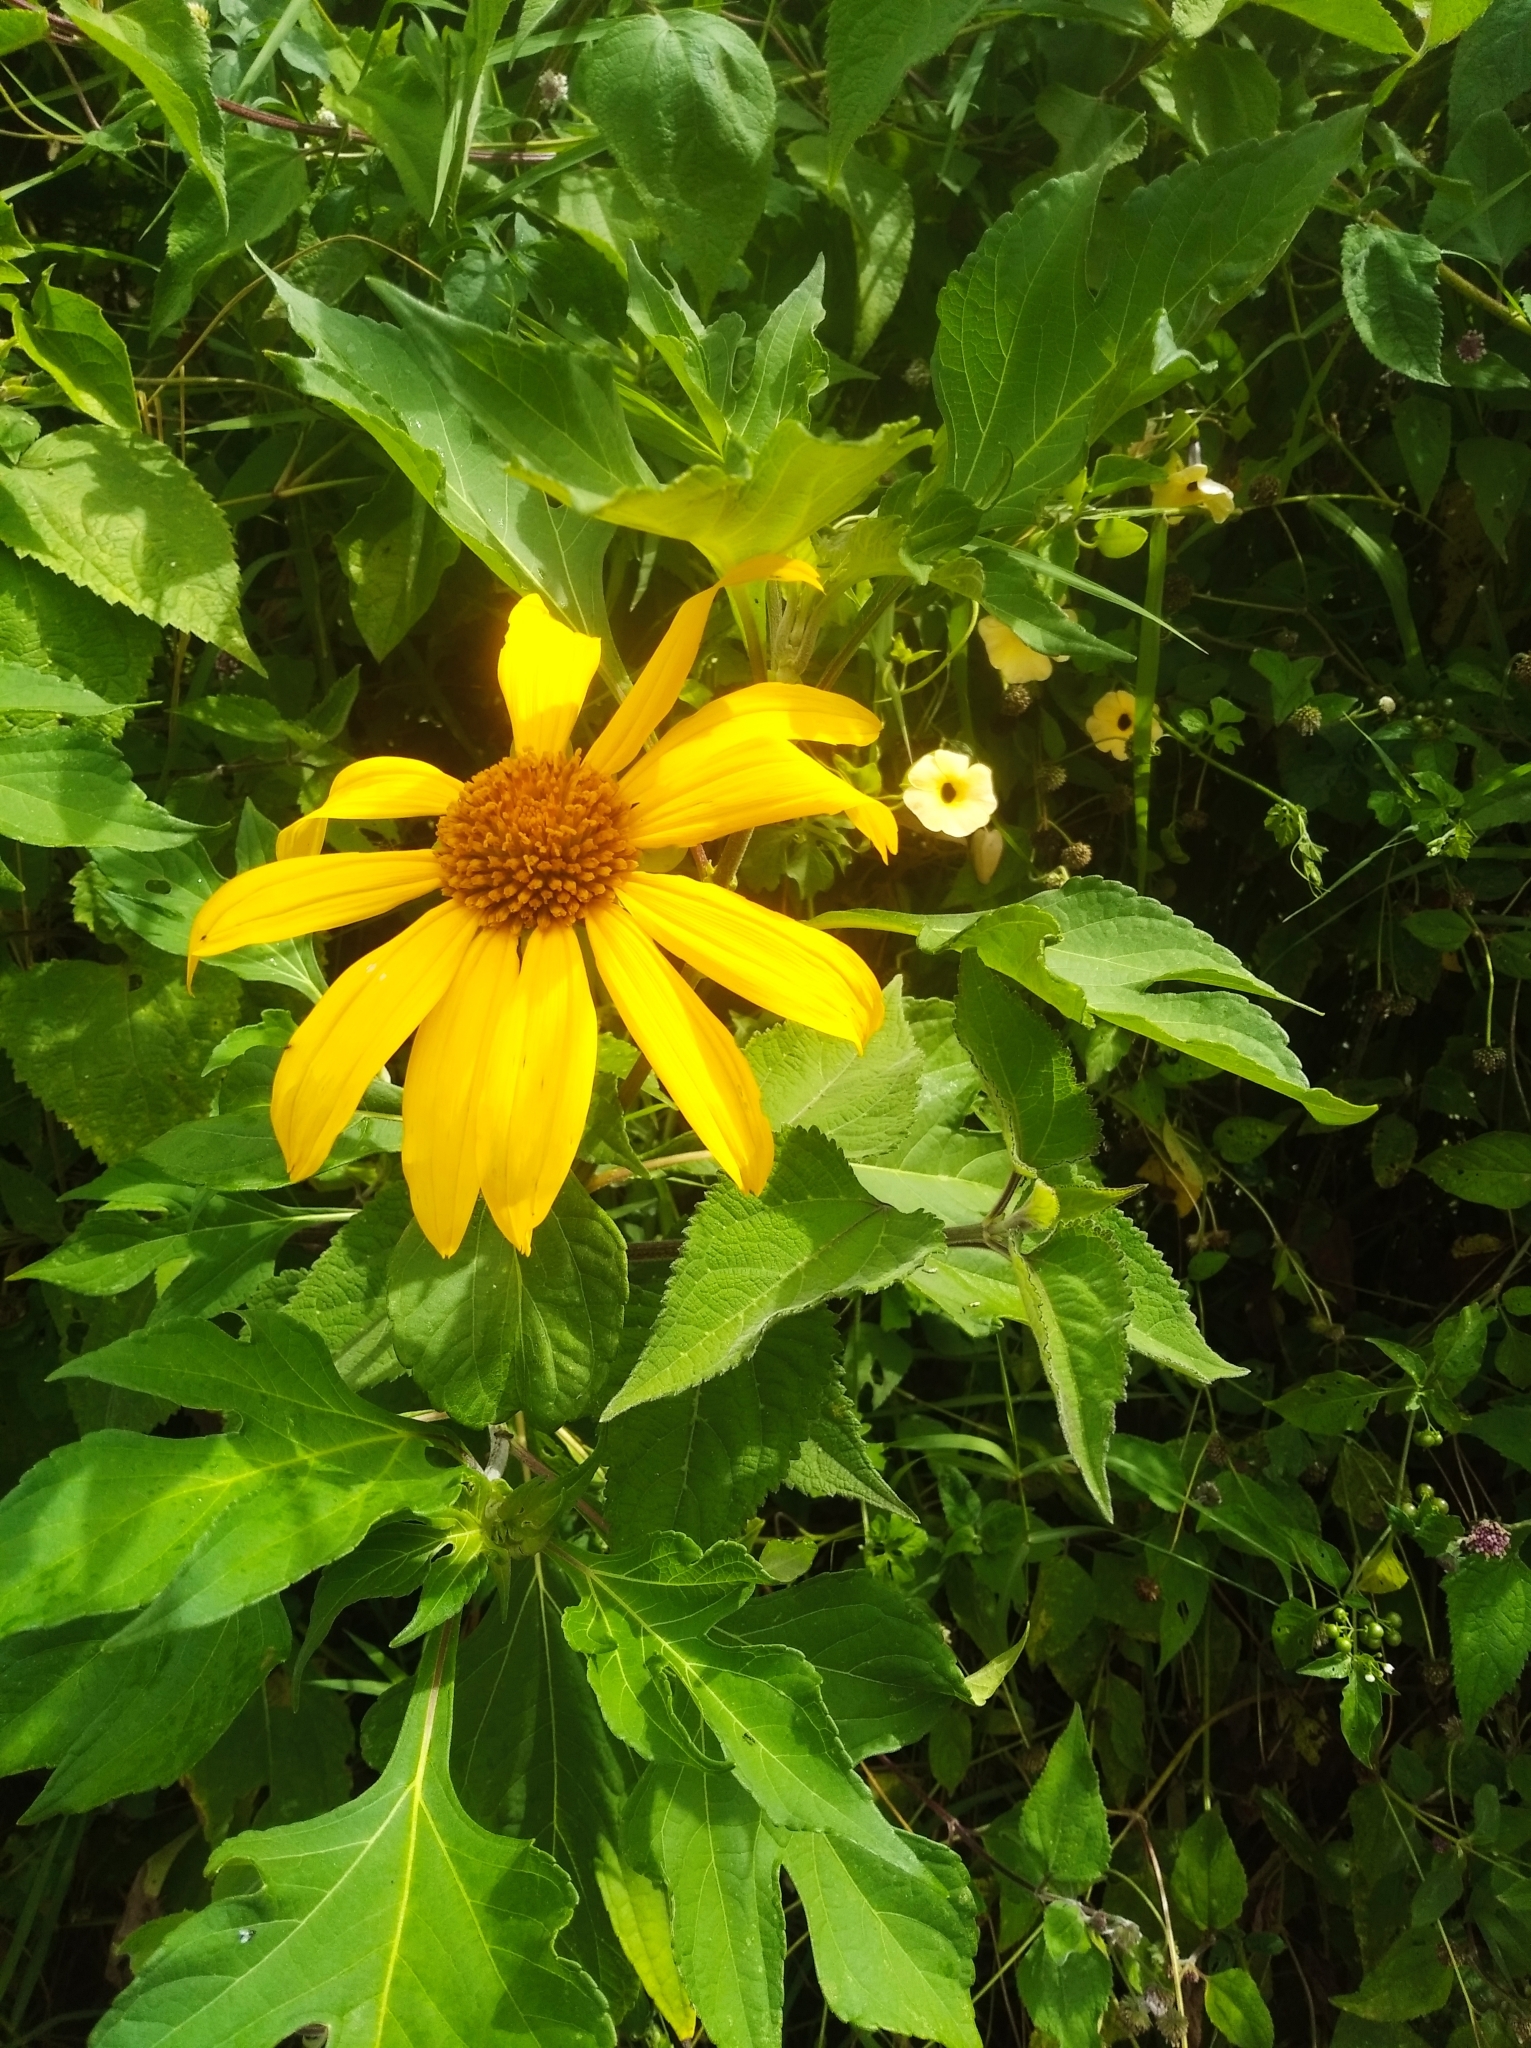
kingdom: Plantae
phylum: Tracheophyta
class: Magnoliopsida
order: Asterales
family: Asteraceae
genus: Tithonia
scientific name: Tithonia diversifolia
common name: Tree marigold
